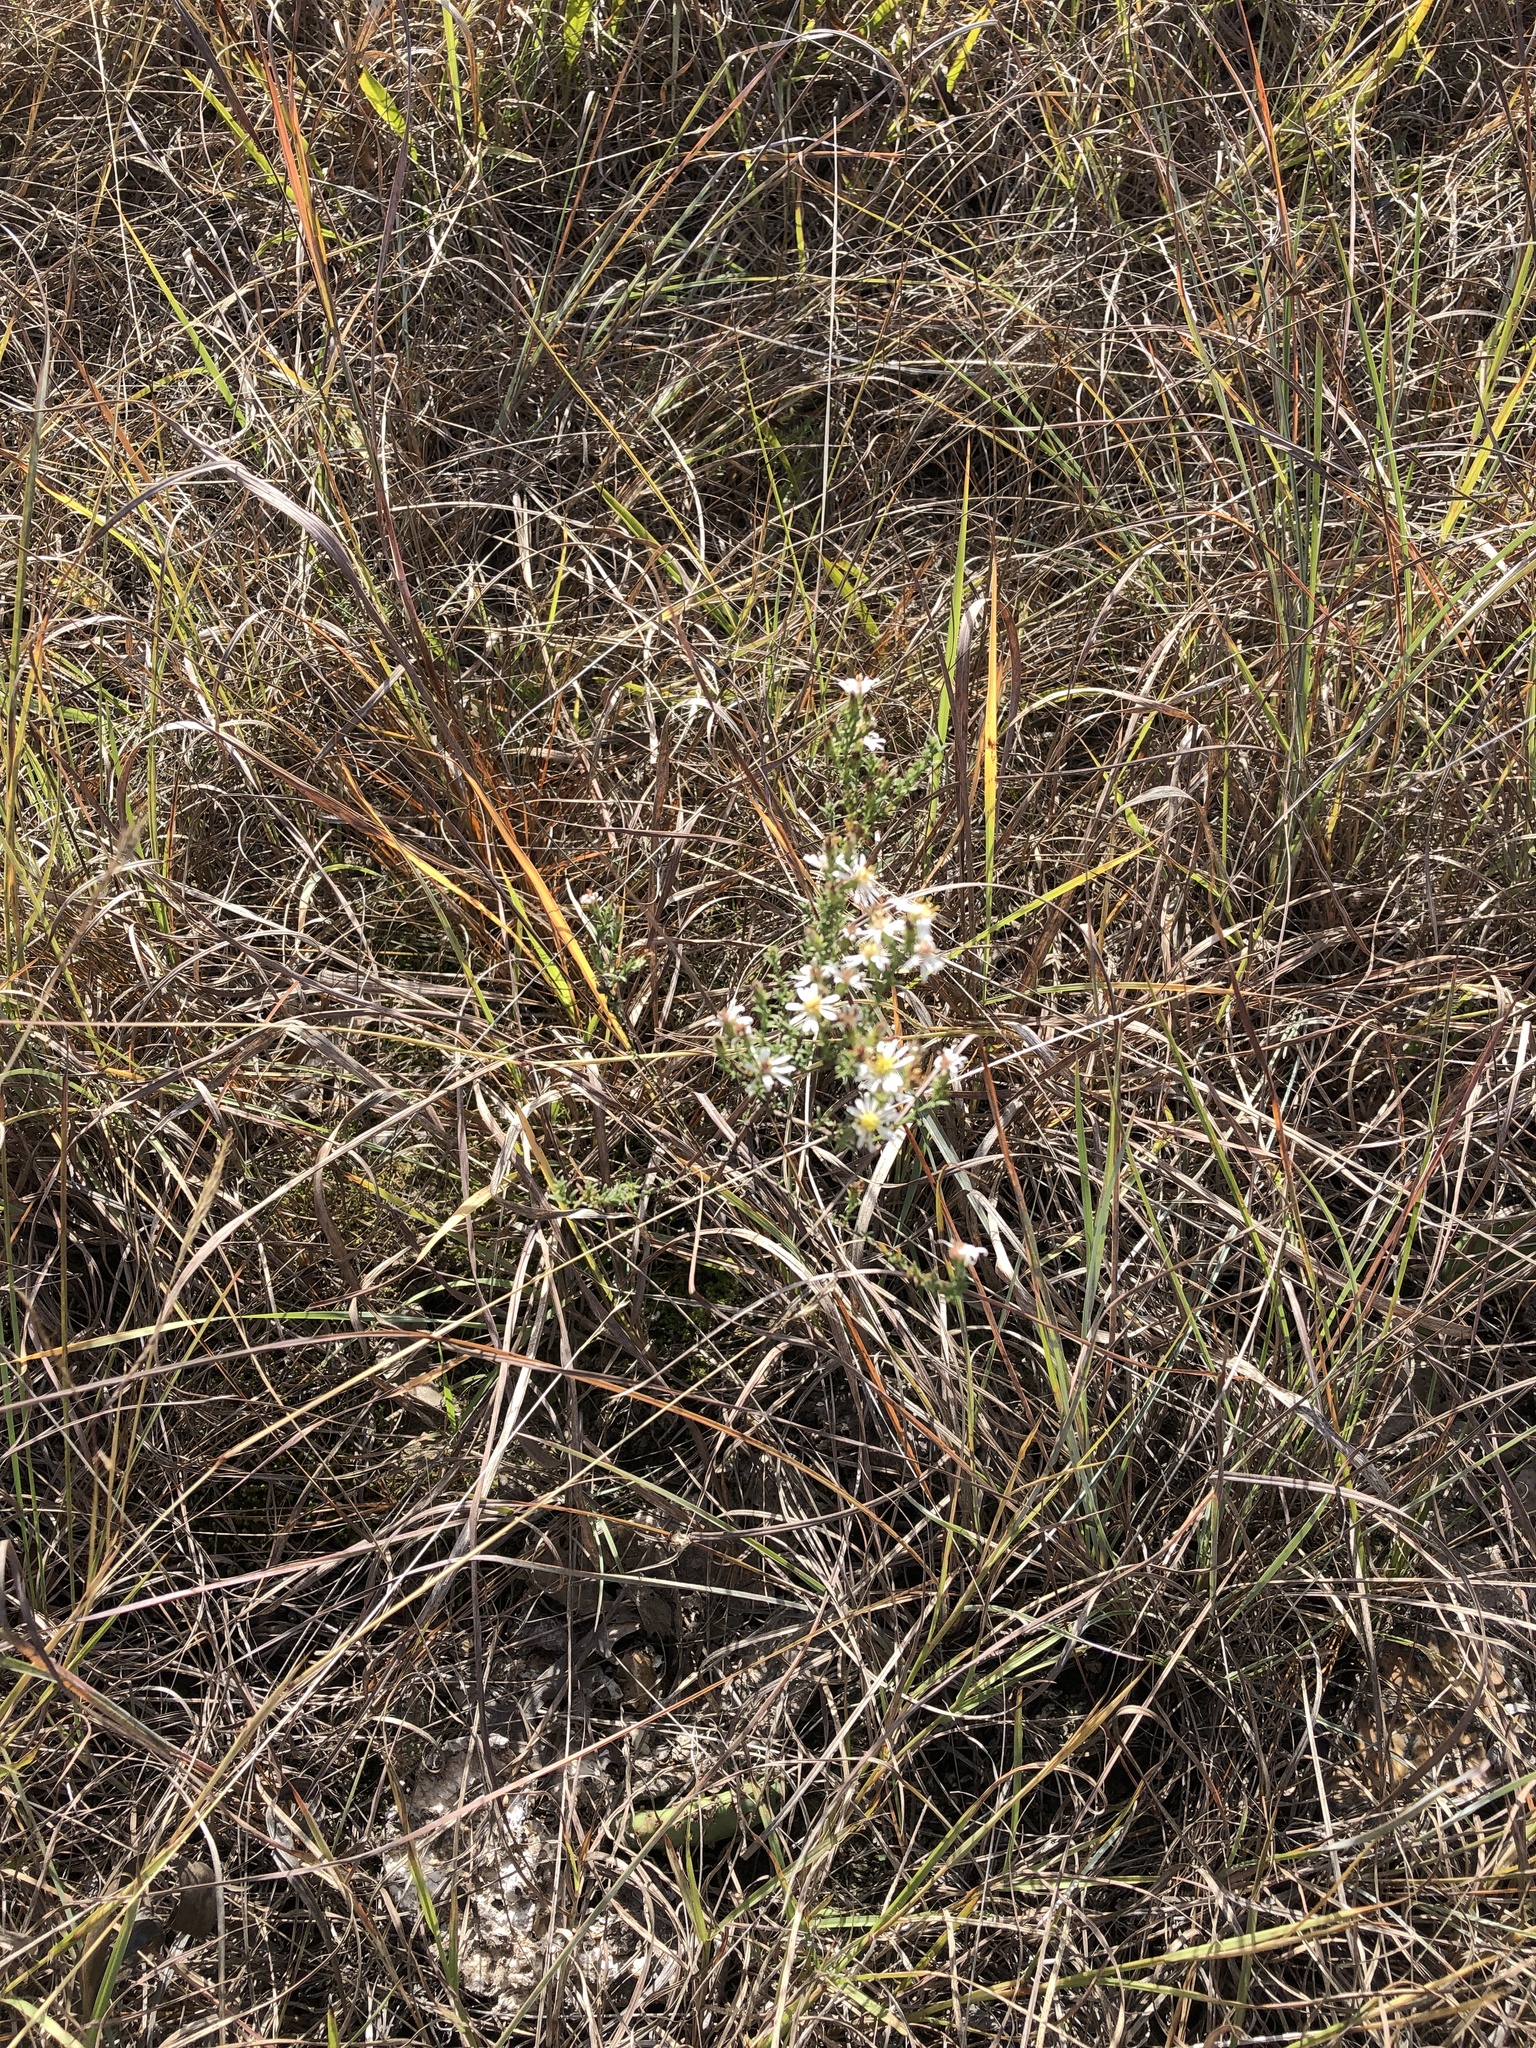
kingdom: Plantae
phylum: Tracheophyta
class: Magnoliopsida
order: Asterales
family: Asteraceae
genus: Symphyotrichum
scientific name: Symphyotrichum ericoides
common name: Heath aster
